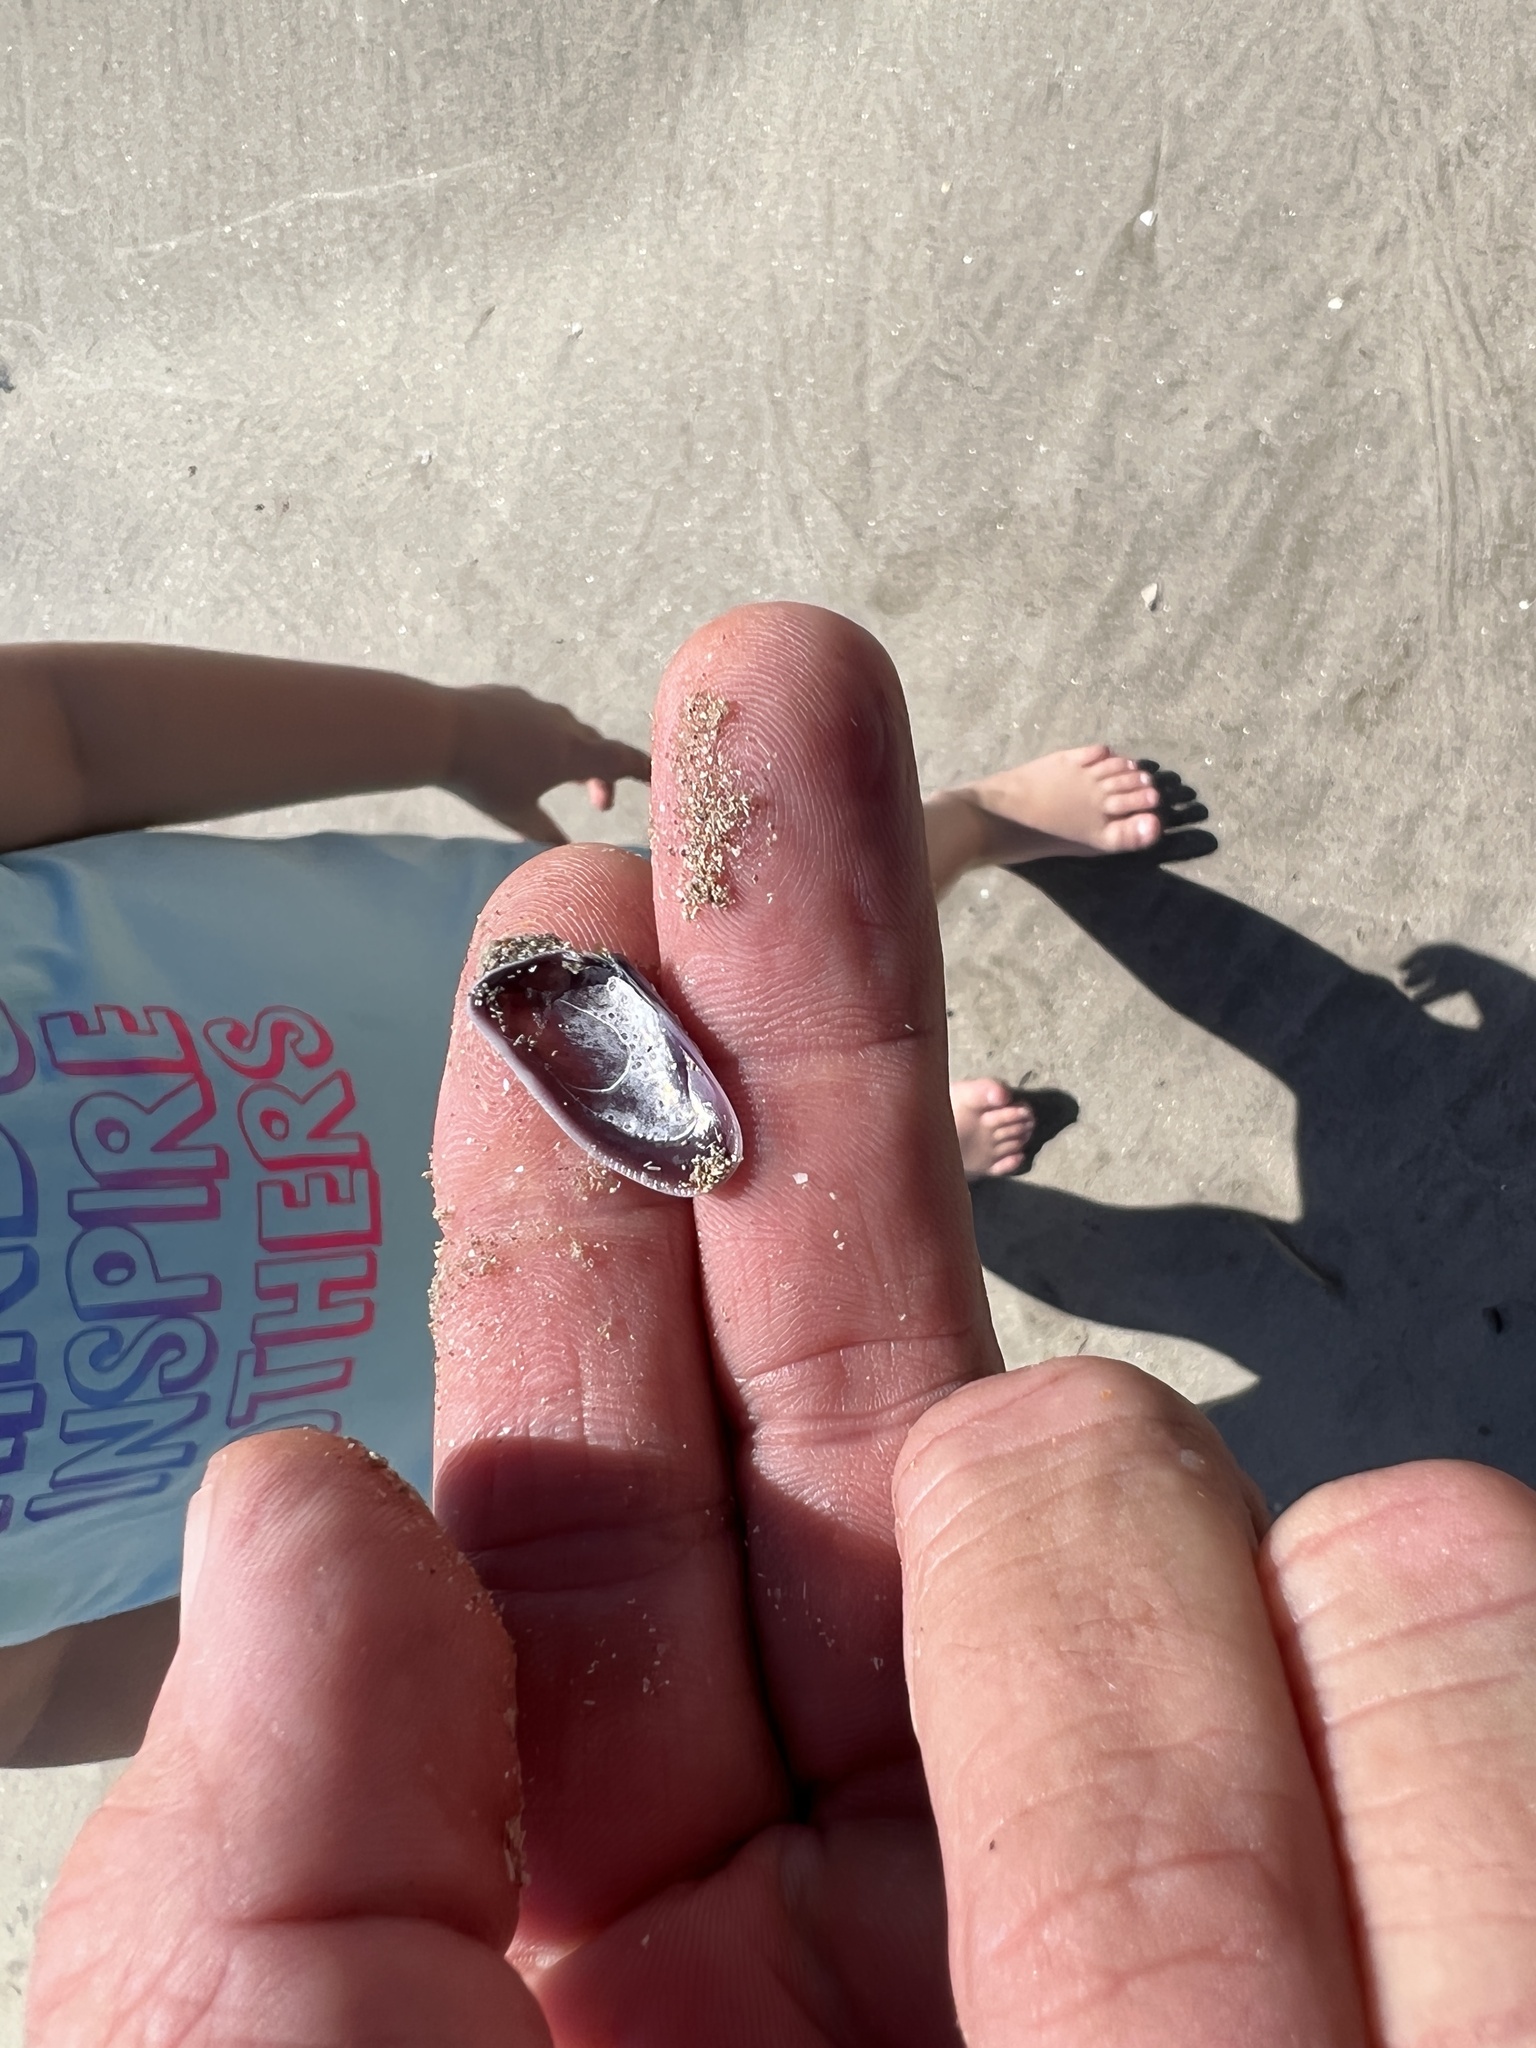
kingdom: Animalia
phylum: Mollusca
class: Bivalvia
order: Cardiida
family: Donacidae
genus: Donax
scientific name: Donax variabilis
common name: Butterfly shell
